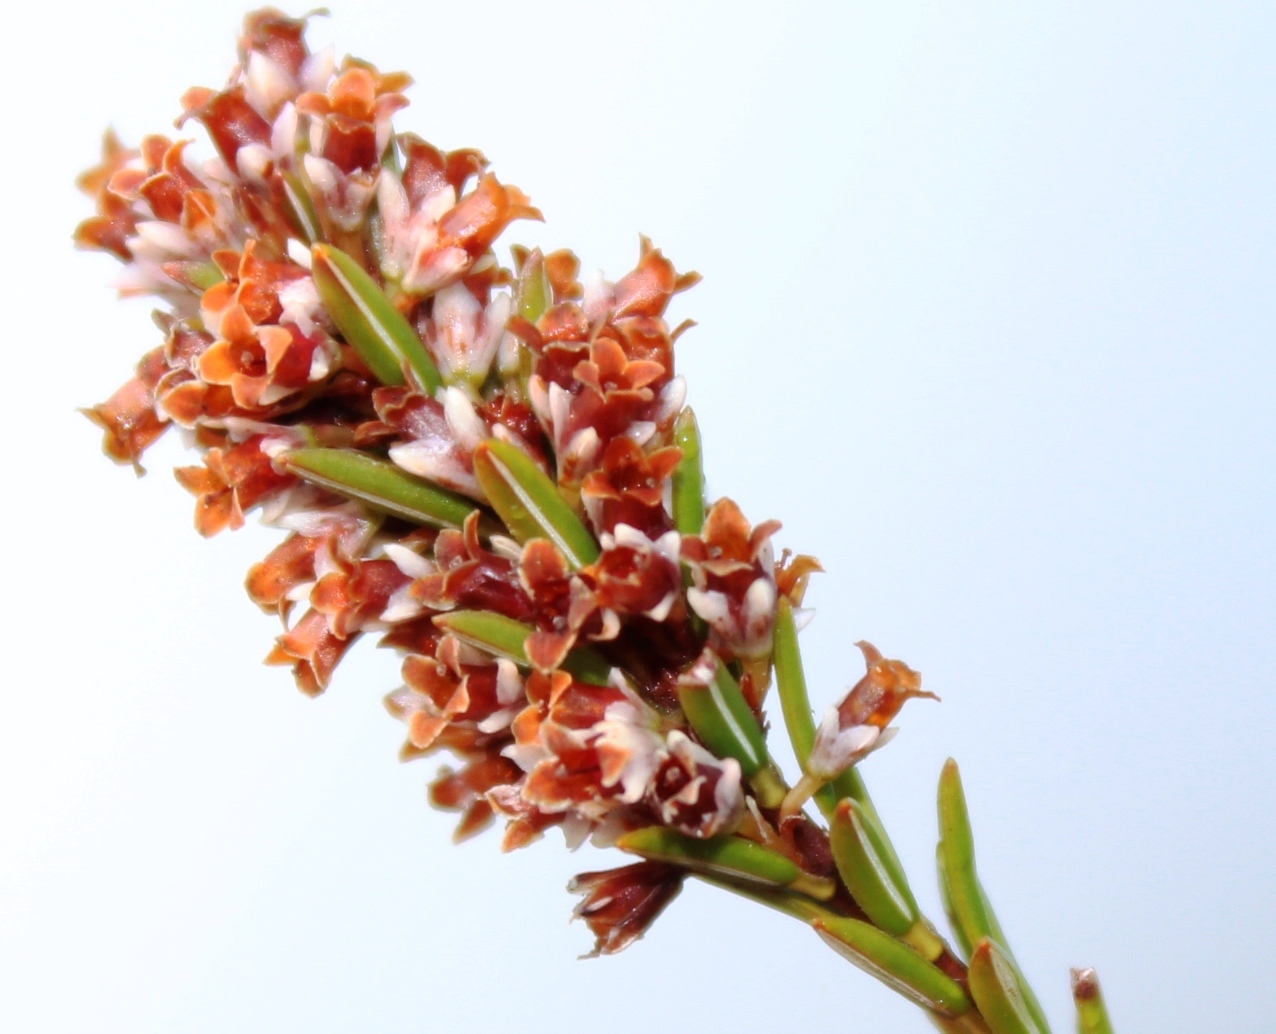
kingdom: Plantae
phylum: Tracheophyta
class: Magnoliopsida
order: Ericales
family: Ericaceae
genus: Erica
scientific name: Erica tenuifolia
